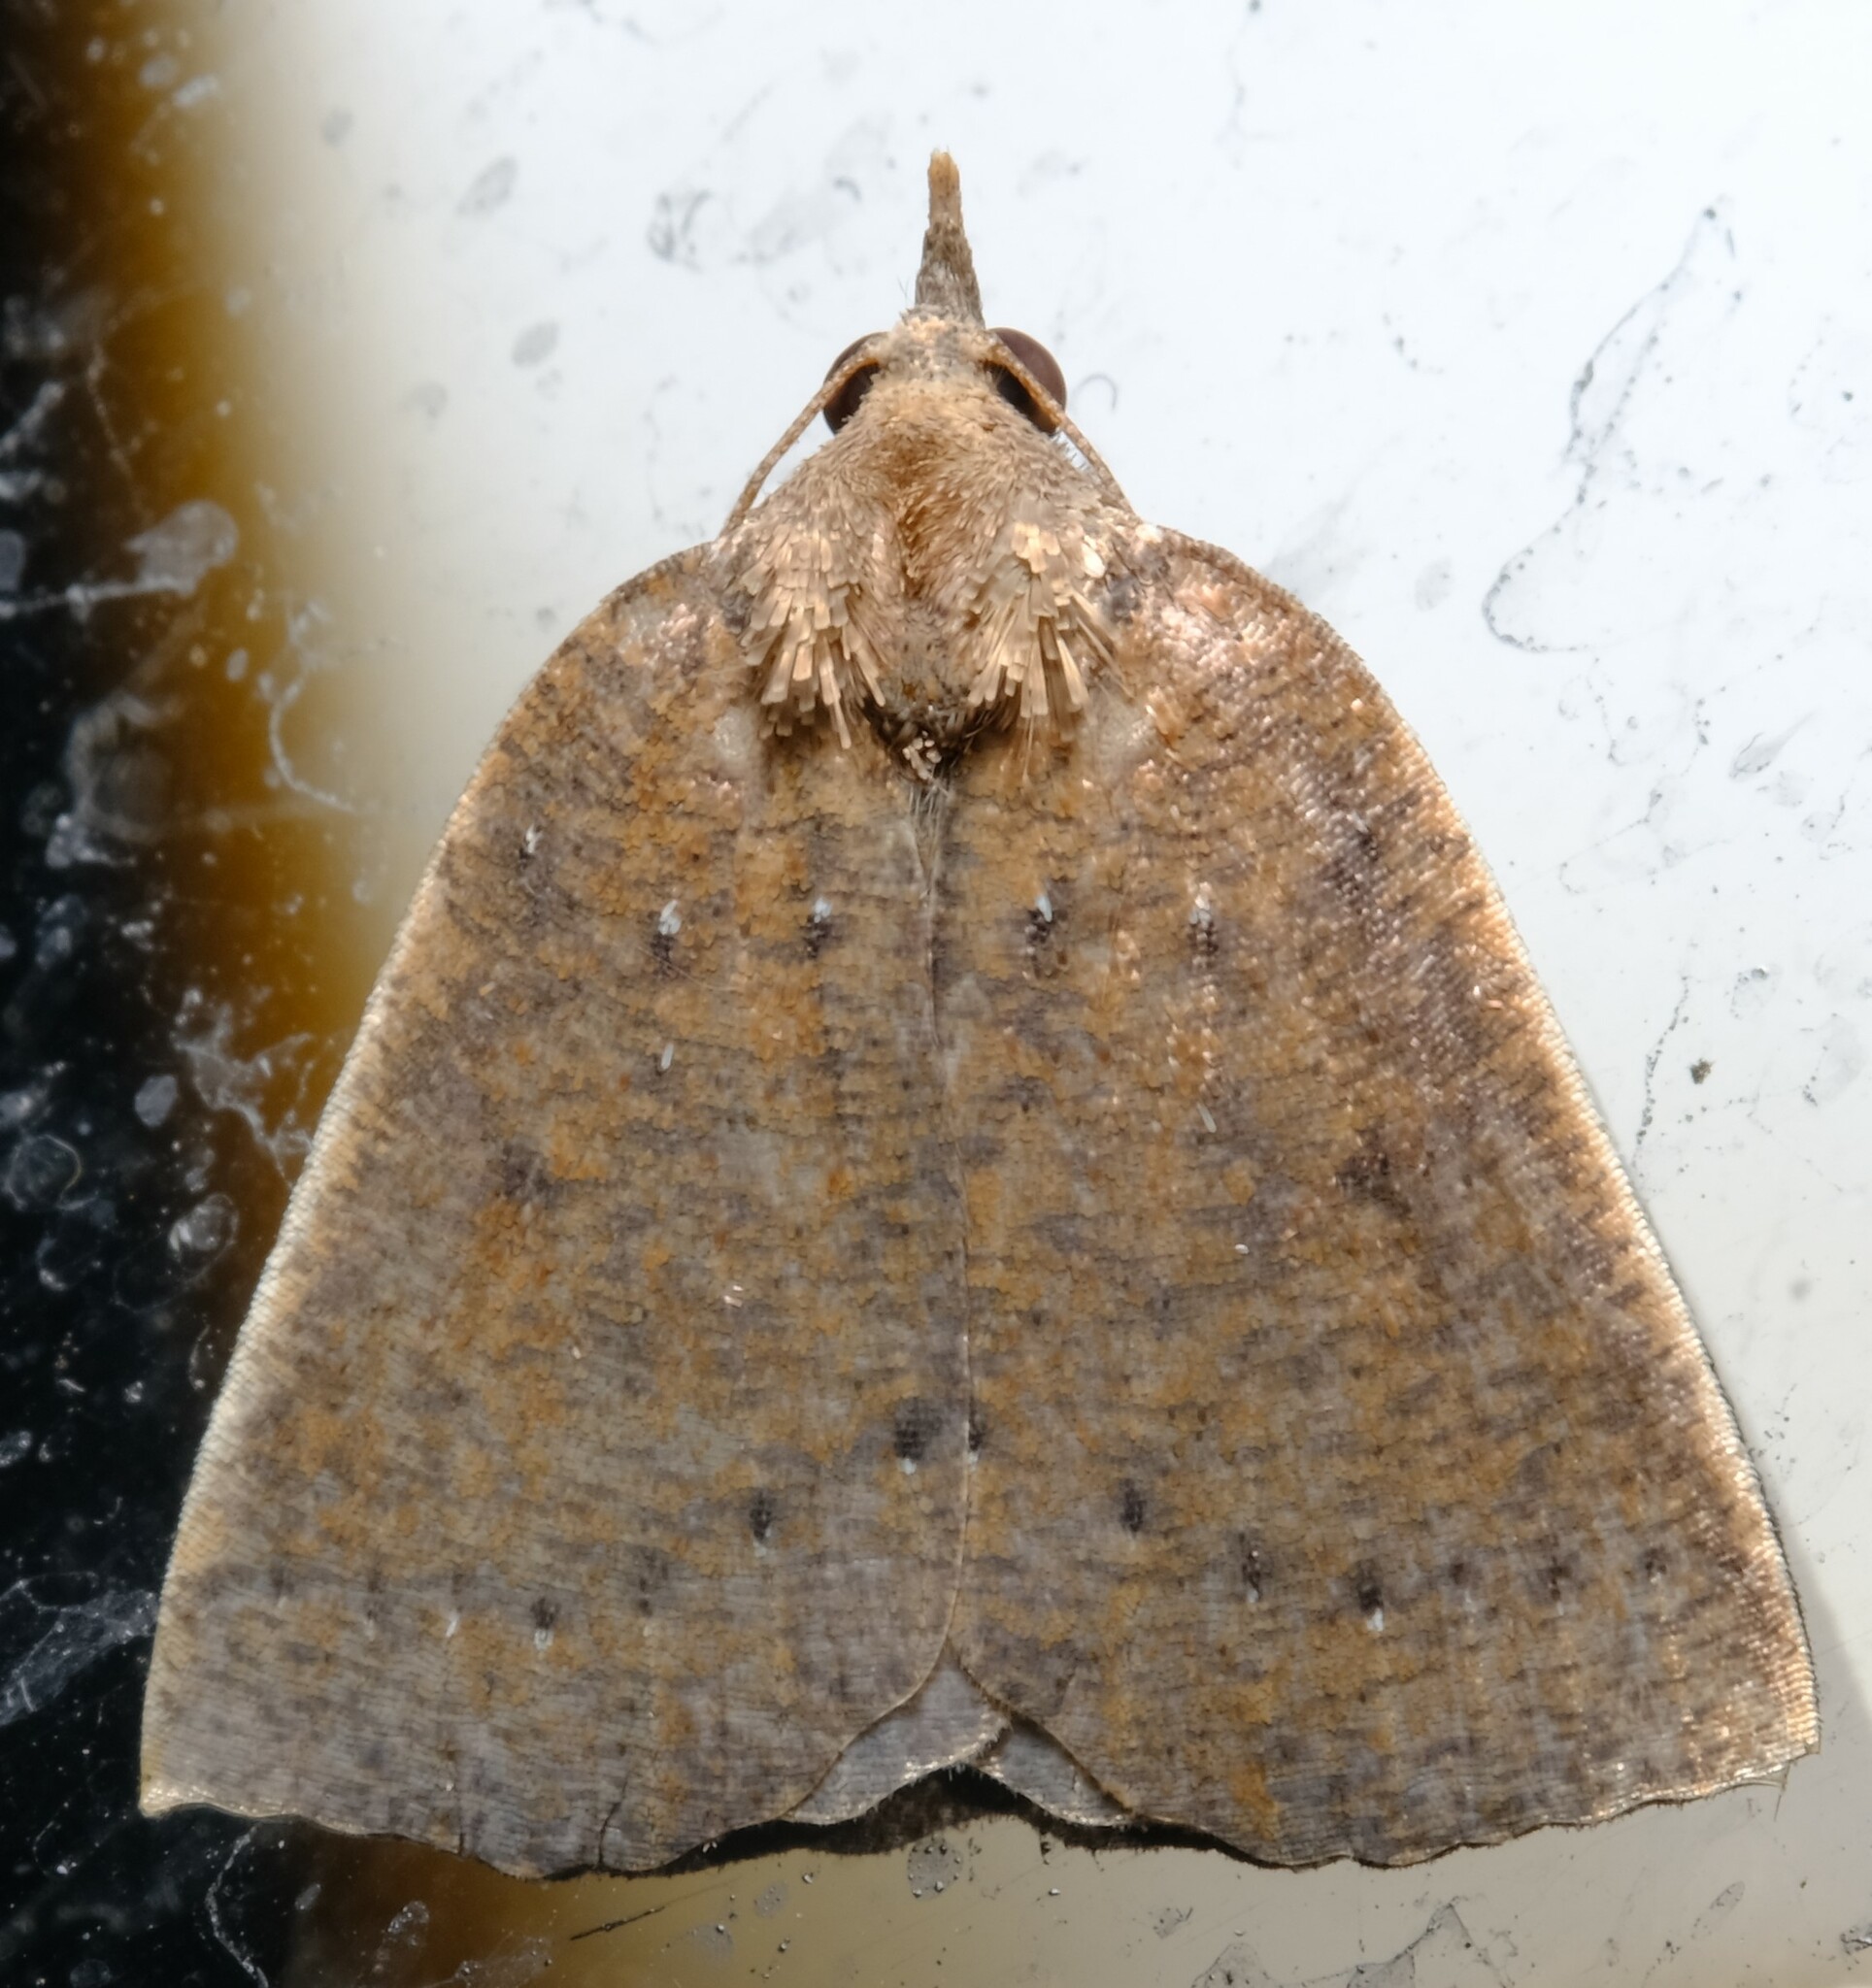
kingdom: Animalia
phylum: Arthropoda
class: Insecta
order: Lepidoptera
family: Geometridae
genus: Authaemon
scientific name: Authaemon stenonipha
